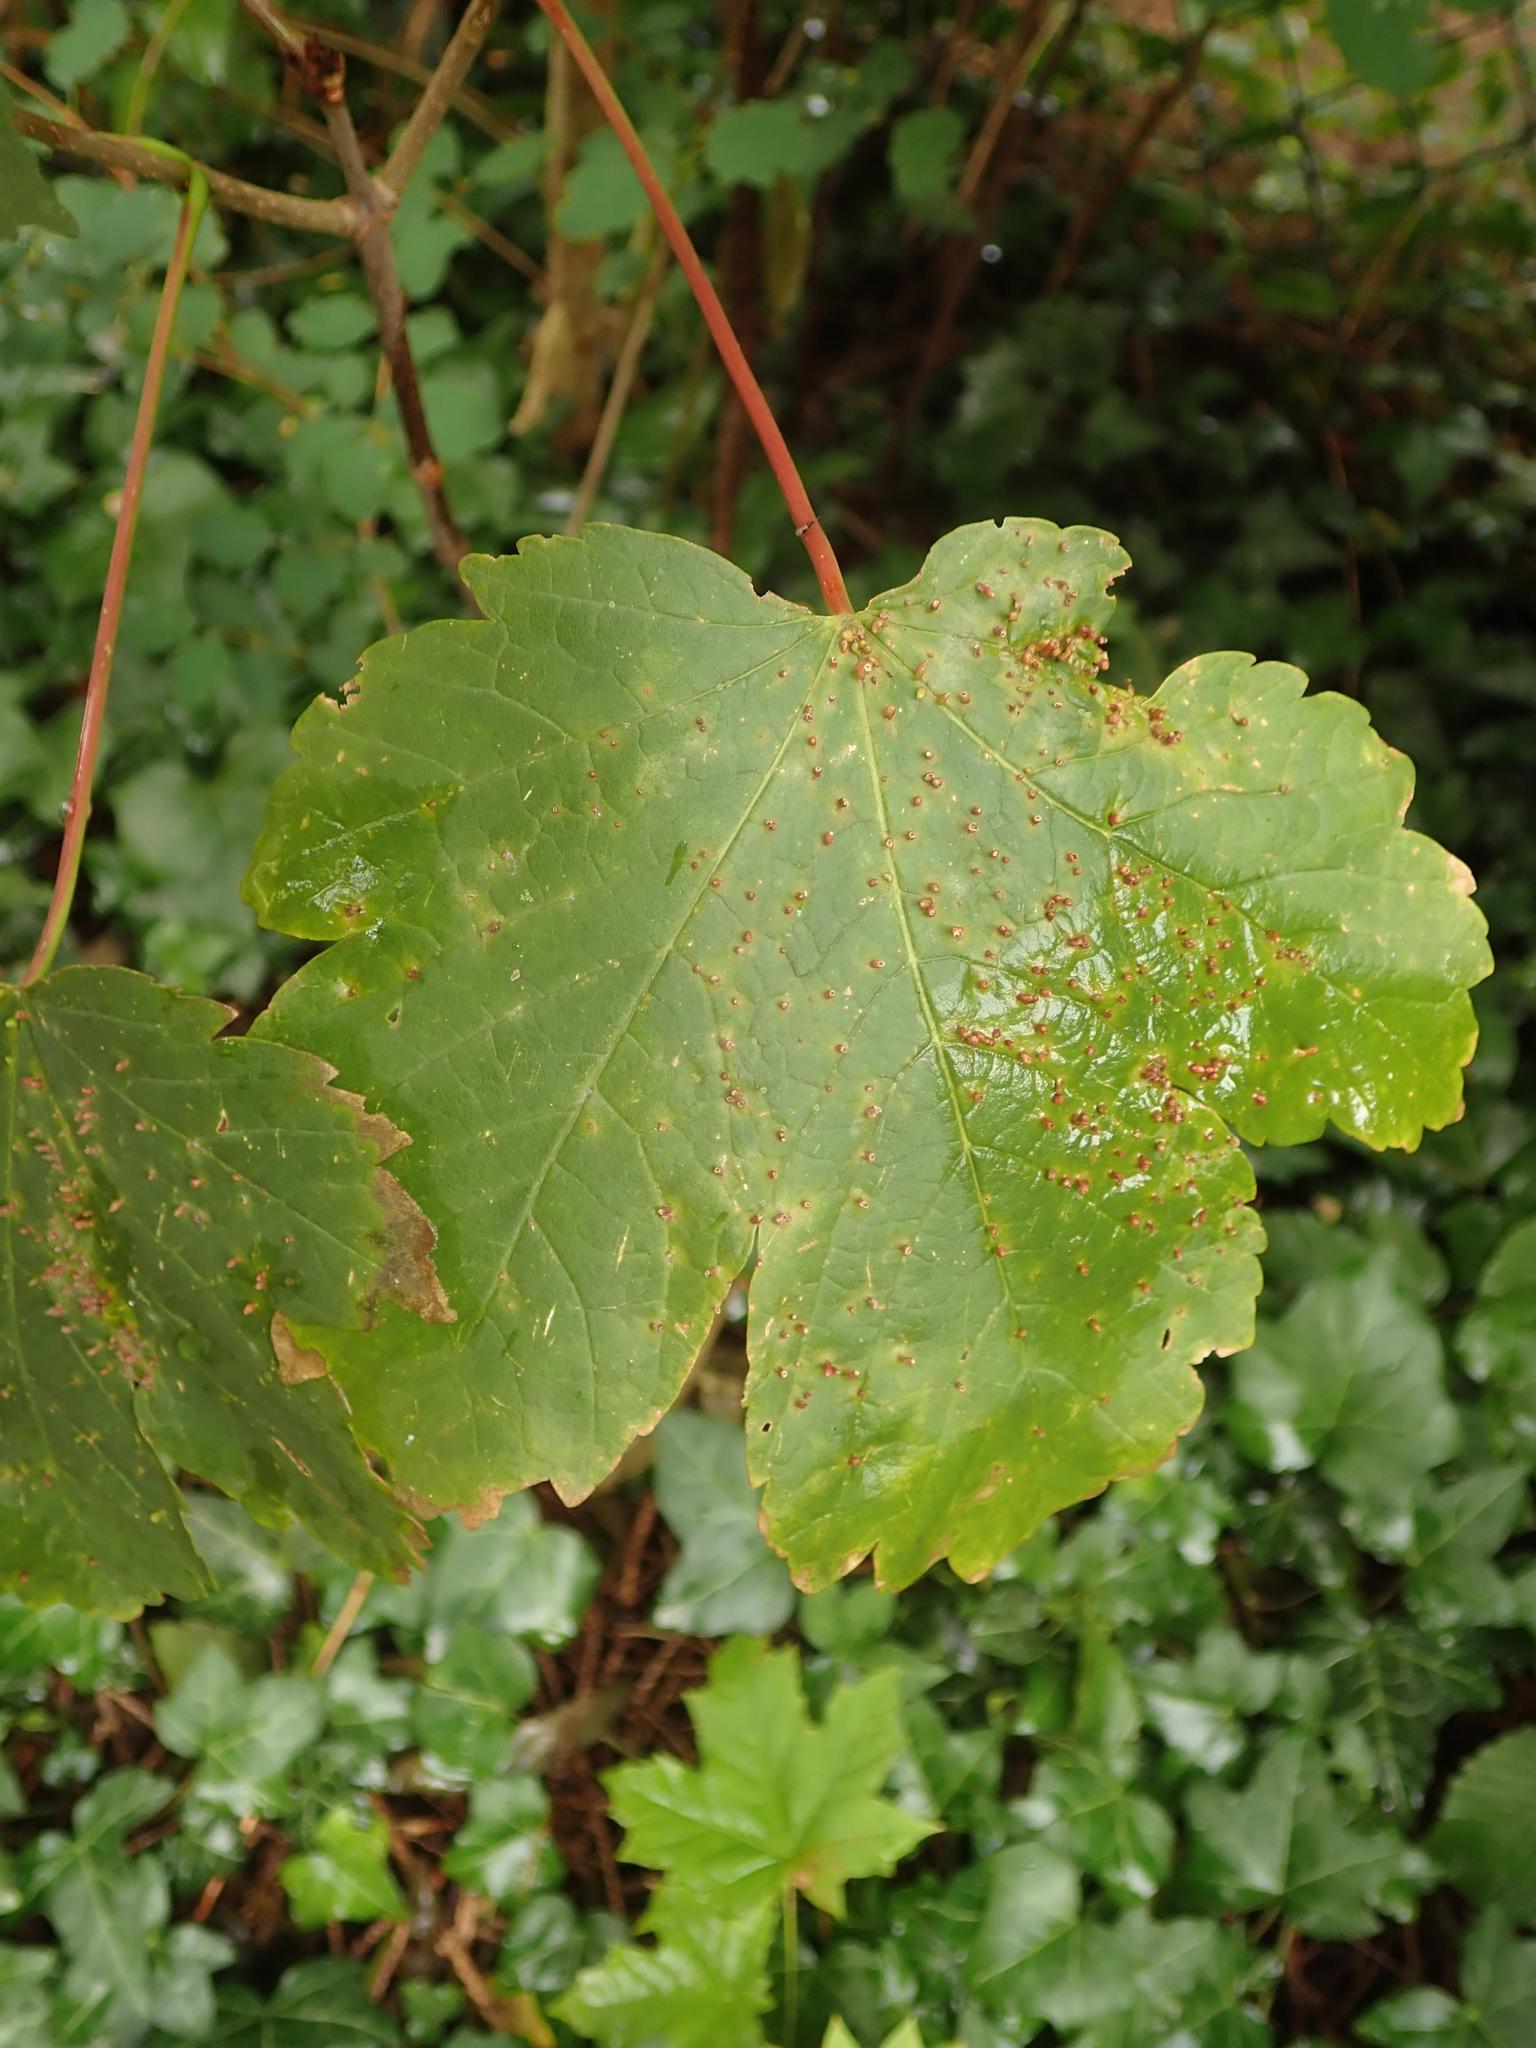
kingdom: Plantae
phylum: Tracheophyta
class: Magnoliopsida
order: Sapindales
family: Sapindaceae
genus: Acer
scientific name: Acer pseudoplatanus
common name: Sycamore
